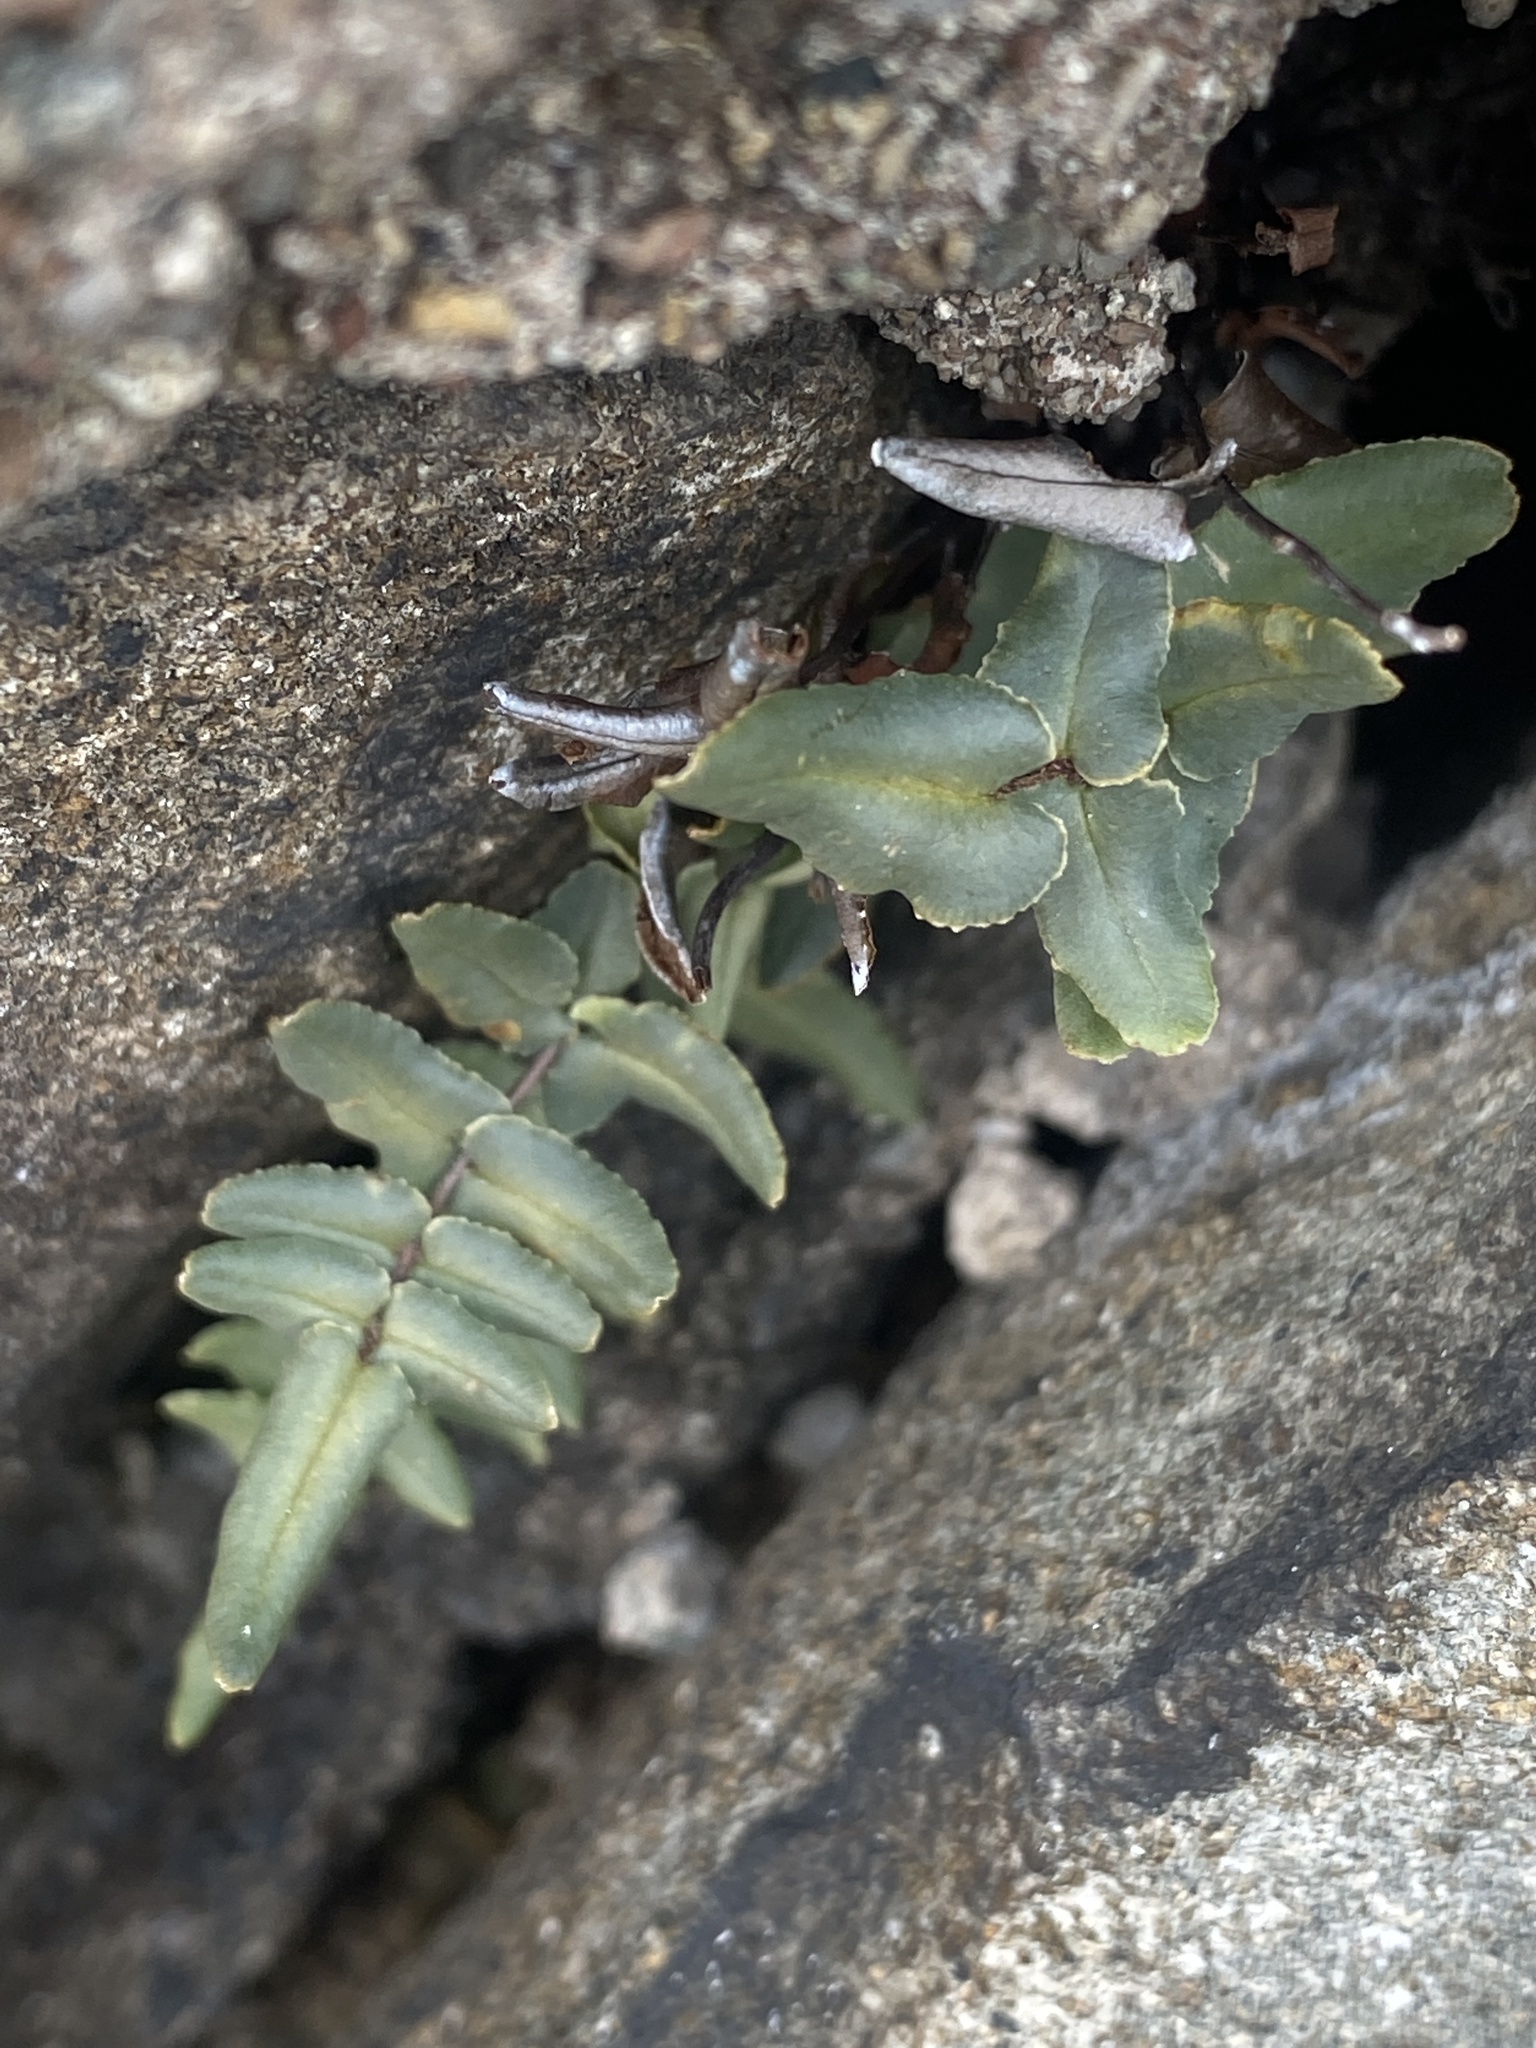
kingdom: Plantae
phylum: Tracheophyta
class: Polypodiopsida
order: Polypodiales
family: Pteridaceae
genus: Pellaea
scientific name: Pellaea atropurpurea
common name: Hairy cliffbrake
